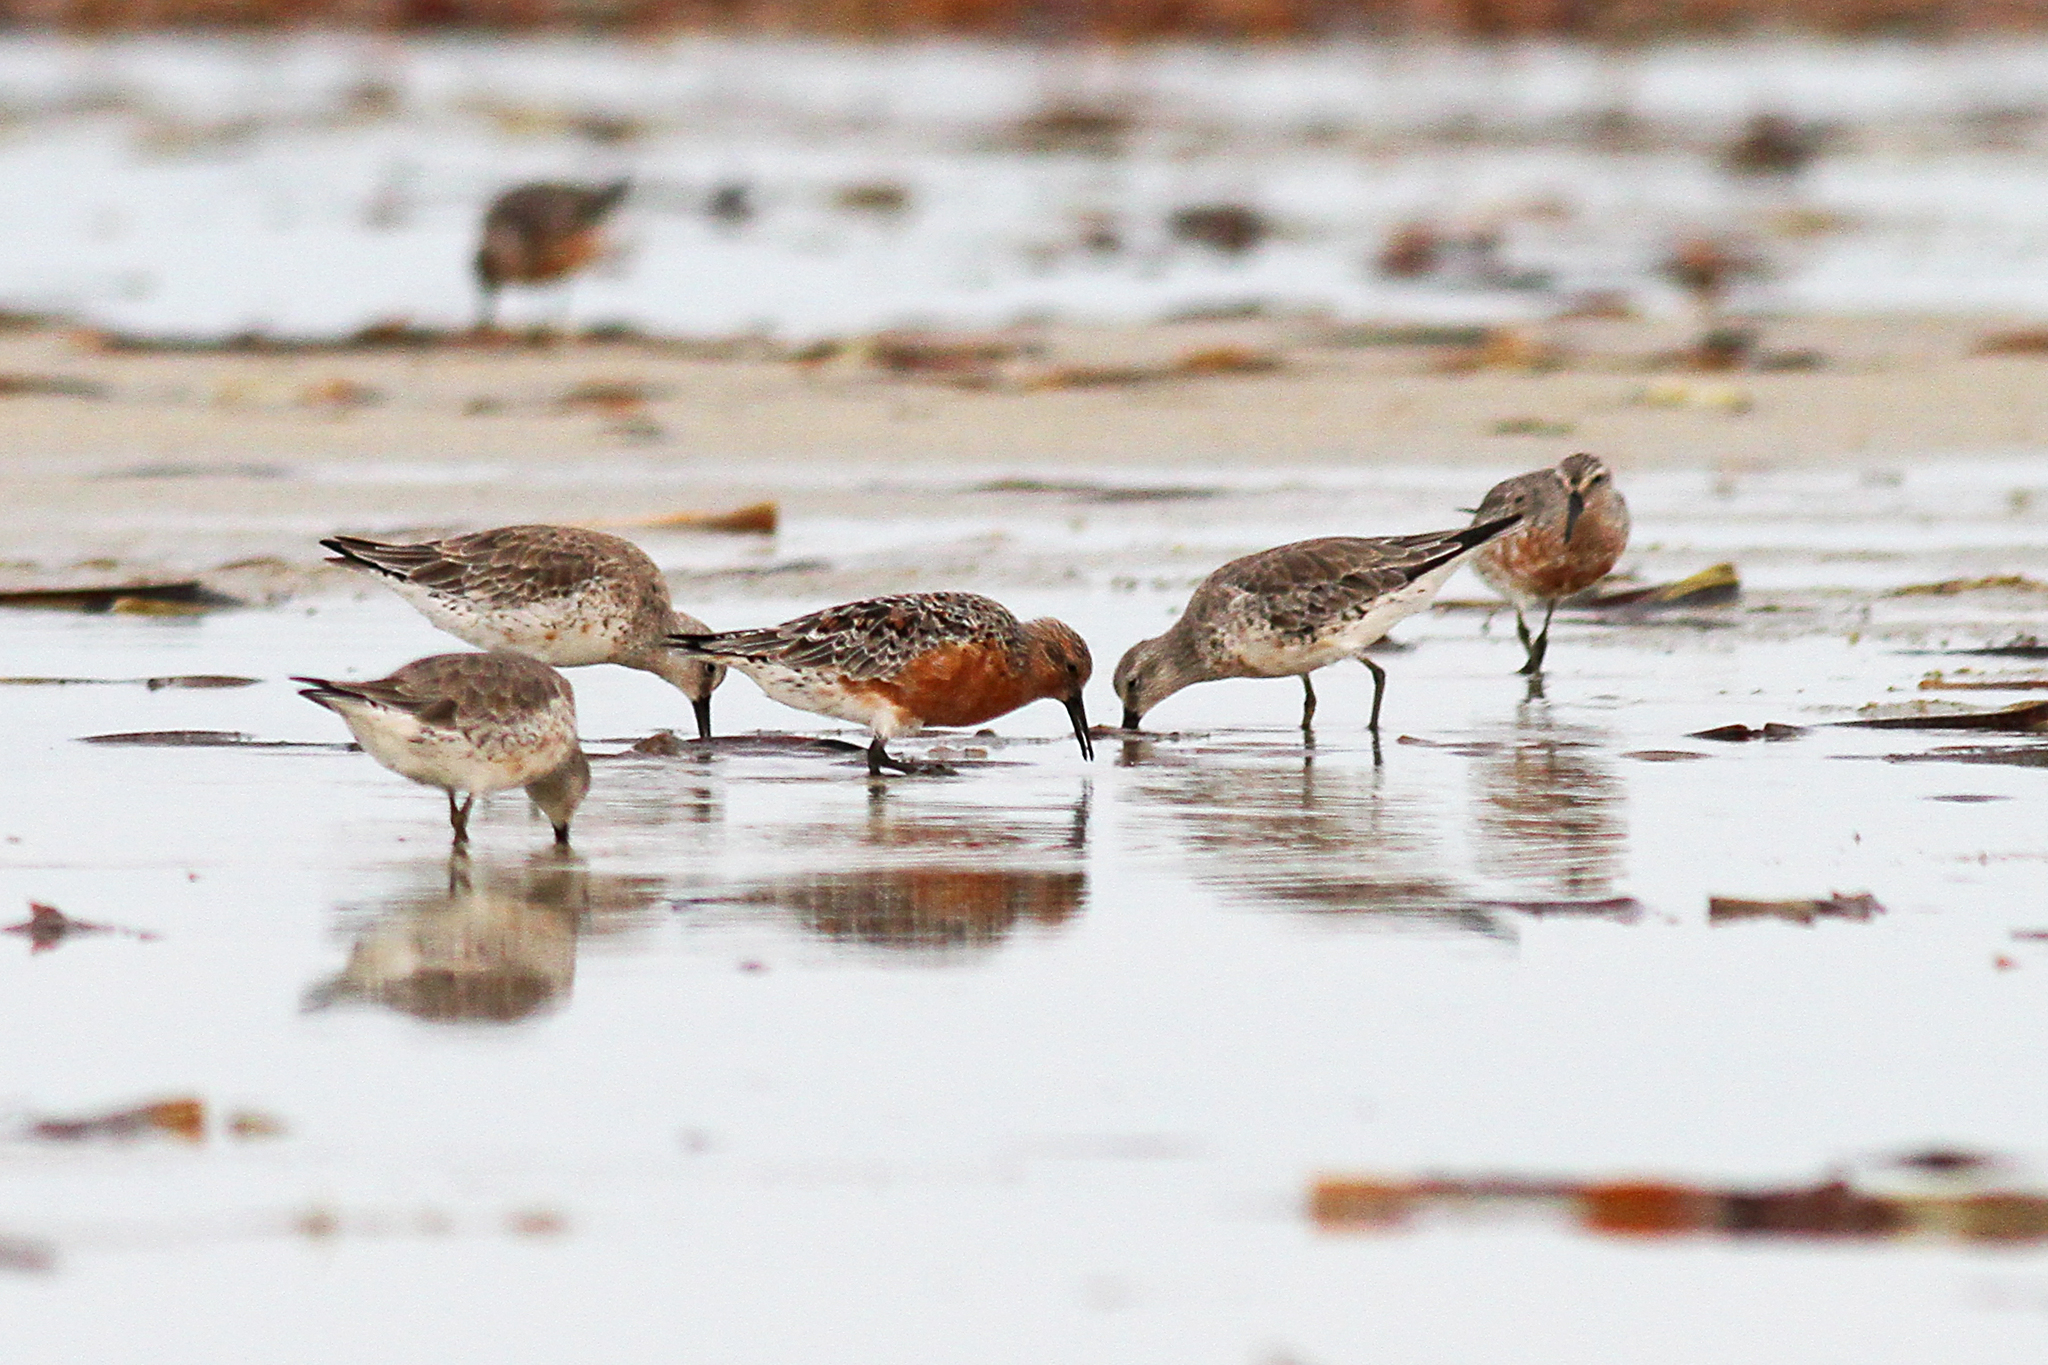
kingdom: Animalia
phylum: Chordata
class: Aves
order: Charadriiformes
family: Scolopacidae
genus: Calidris
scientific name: Calidris canutus
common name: Red knot
